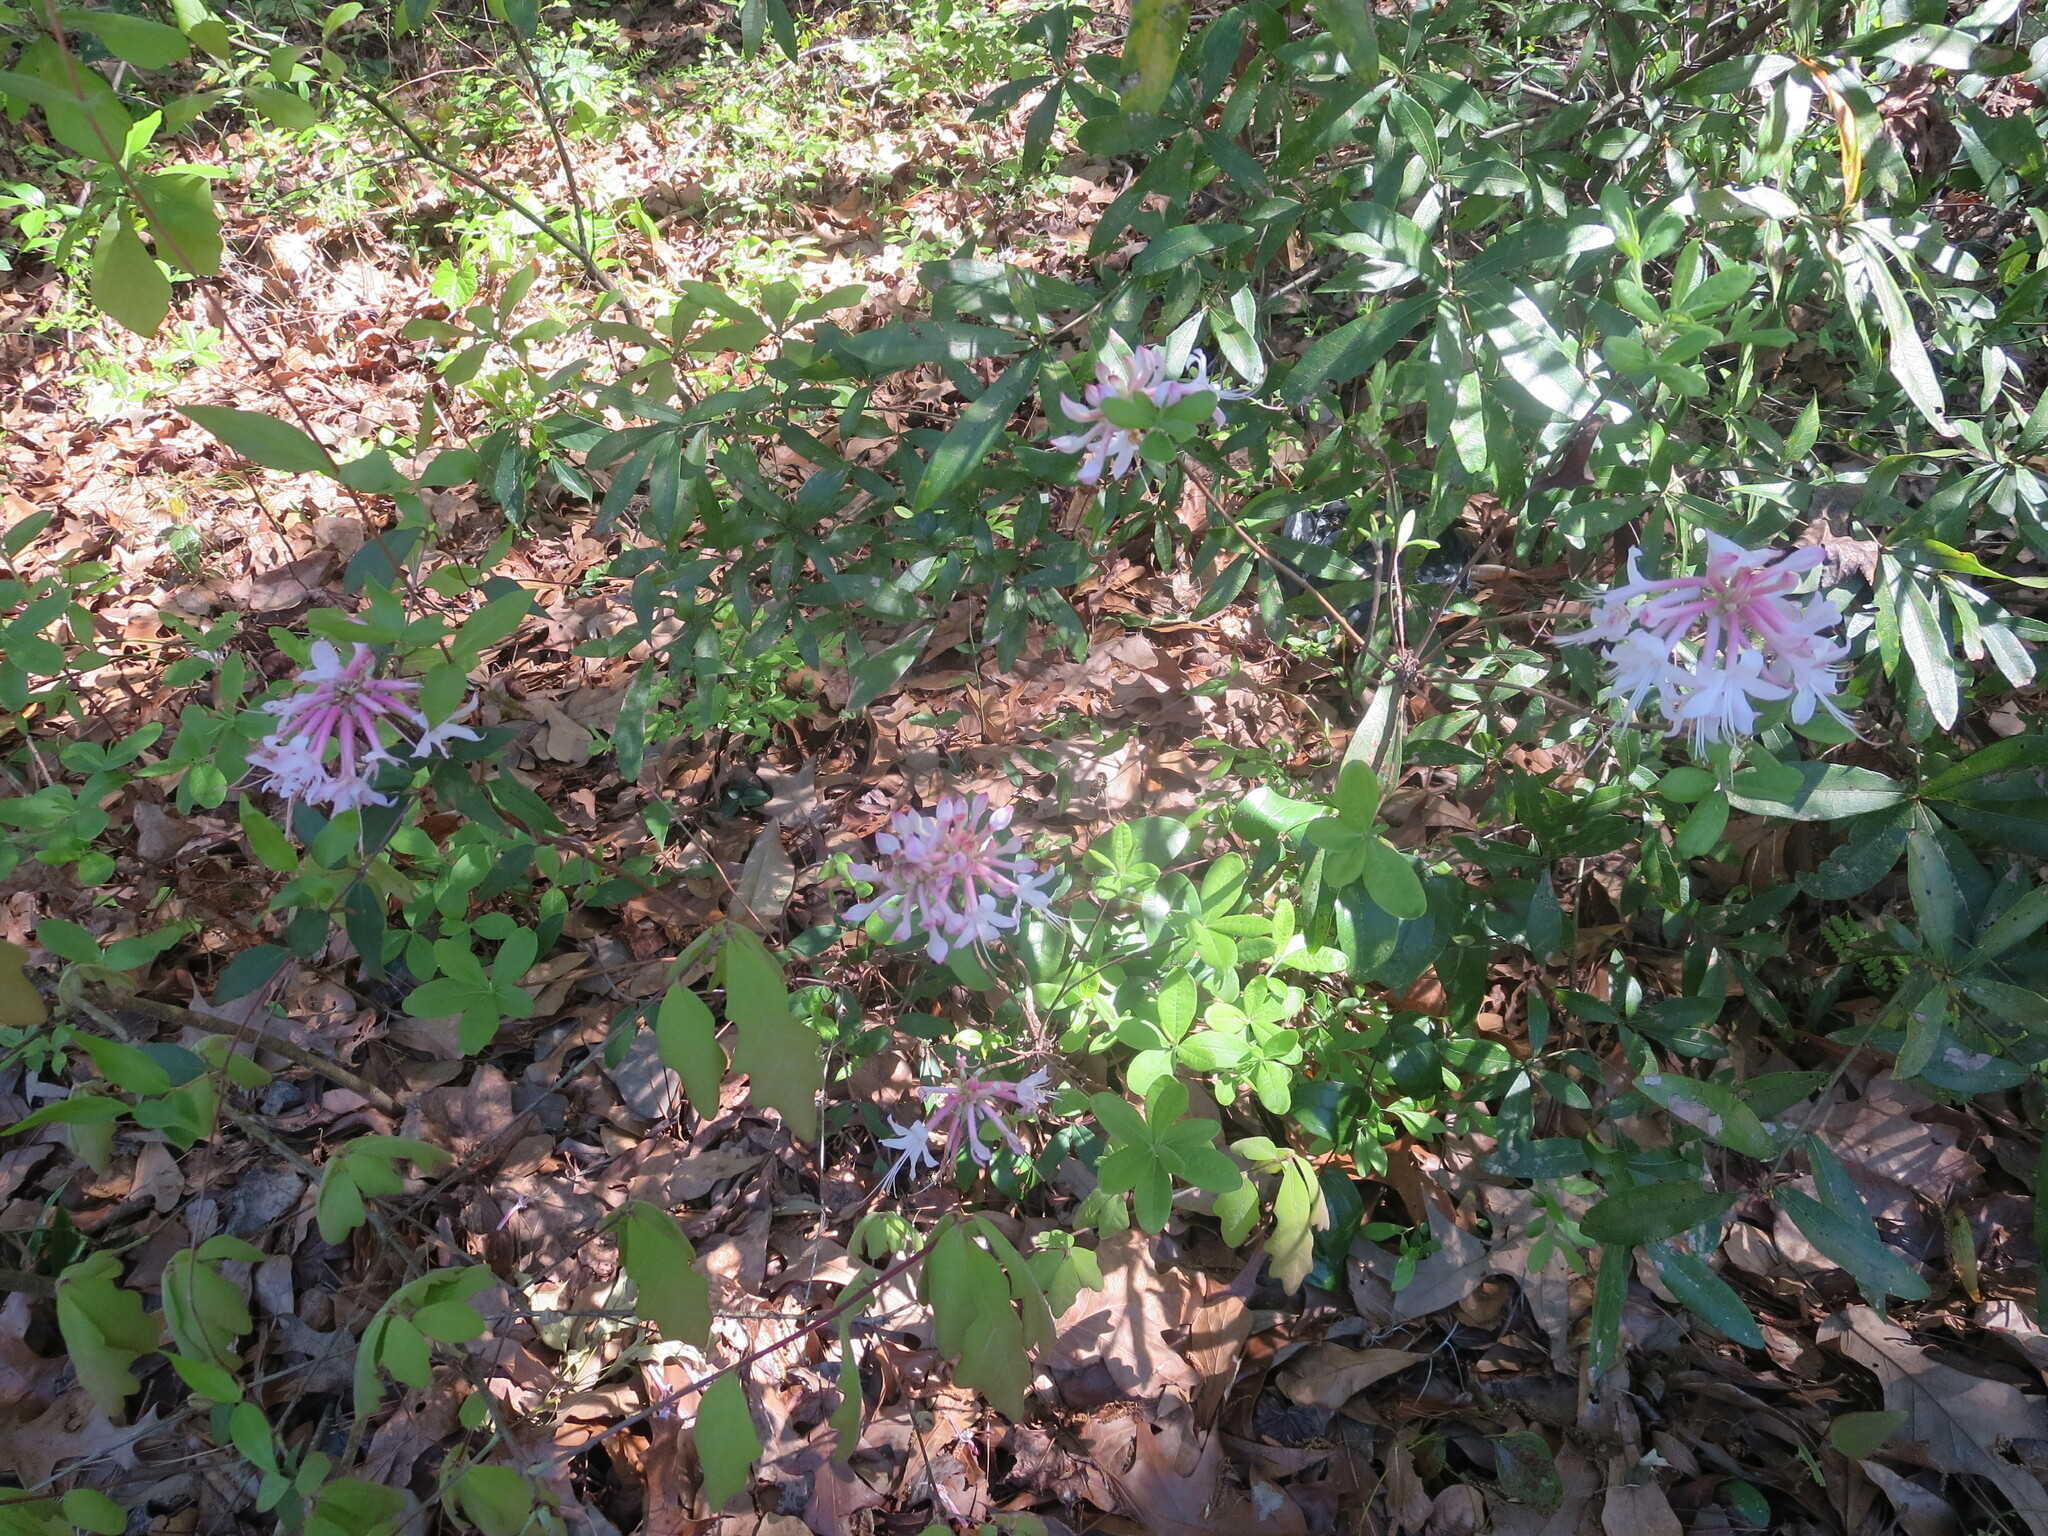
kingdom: Plantae
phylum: Tracheophyta
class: Magnoliopsida
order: Ericales
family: Ericaceae
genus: Rhododendron
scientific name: Rhododendron canescens
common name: Mountain azalea
